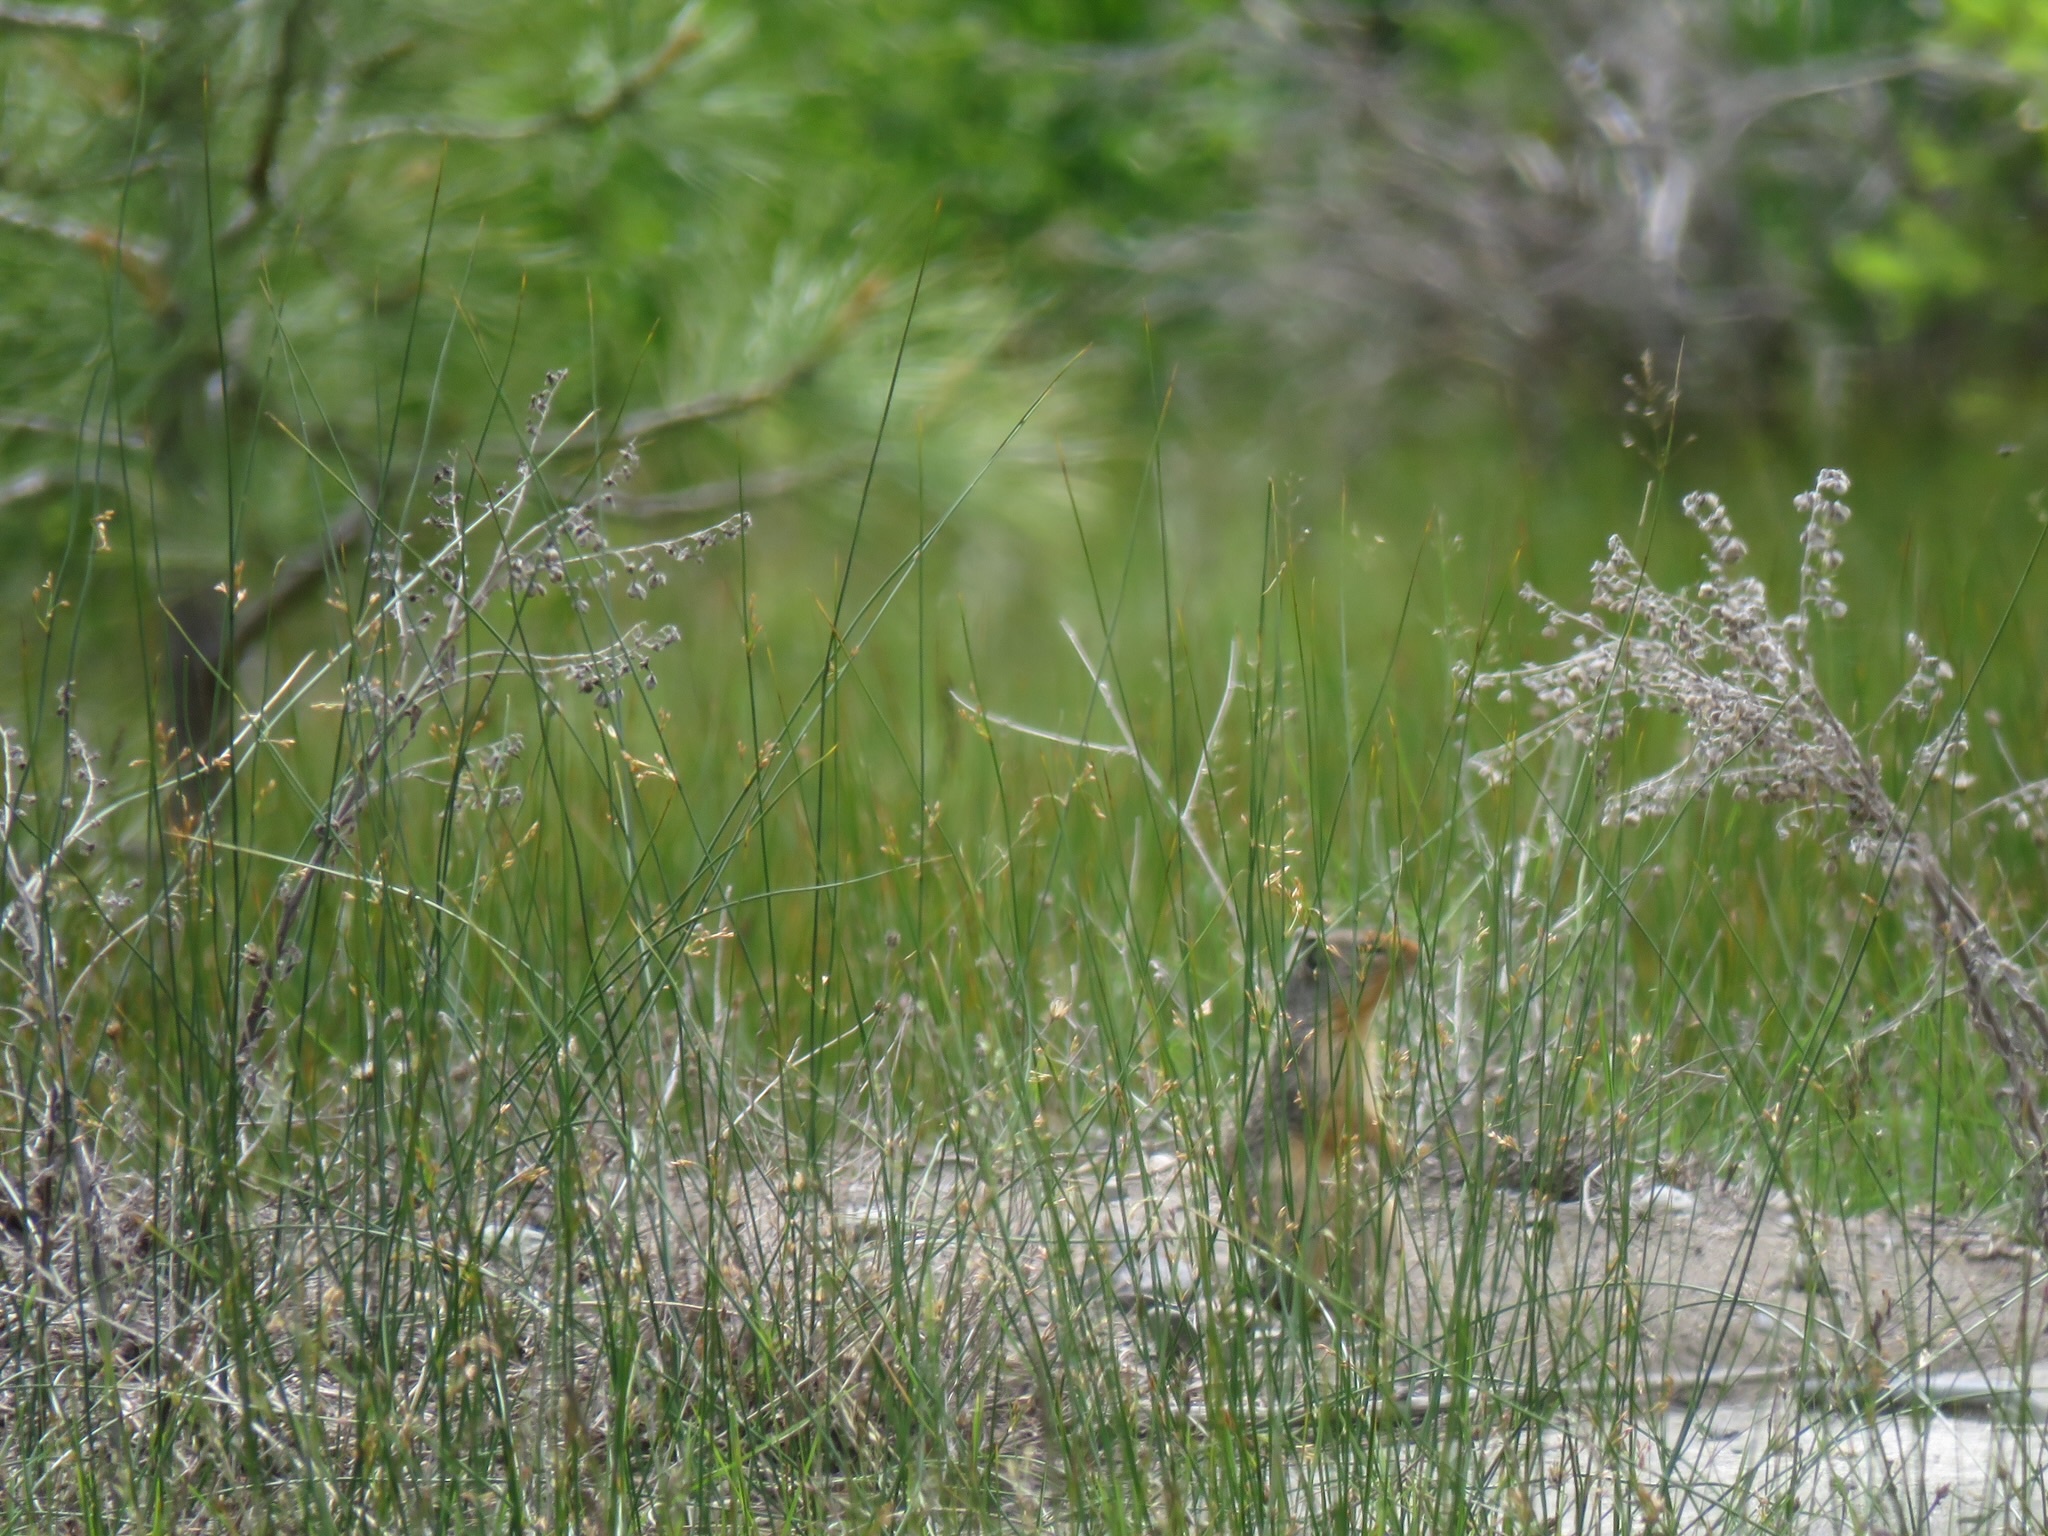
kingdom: Animalia
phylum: Chordata
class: Mammalia
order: Rodentia
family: Sciuridae
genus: Urocitellus
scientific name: Urocitellus columbianus
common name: Columbian ground squirrel
